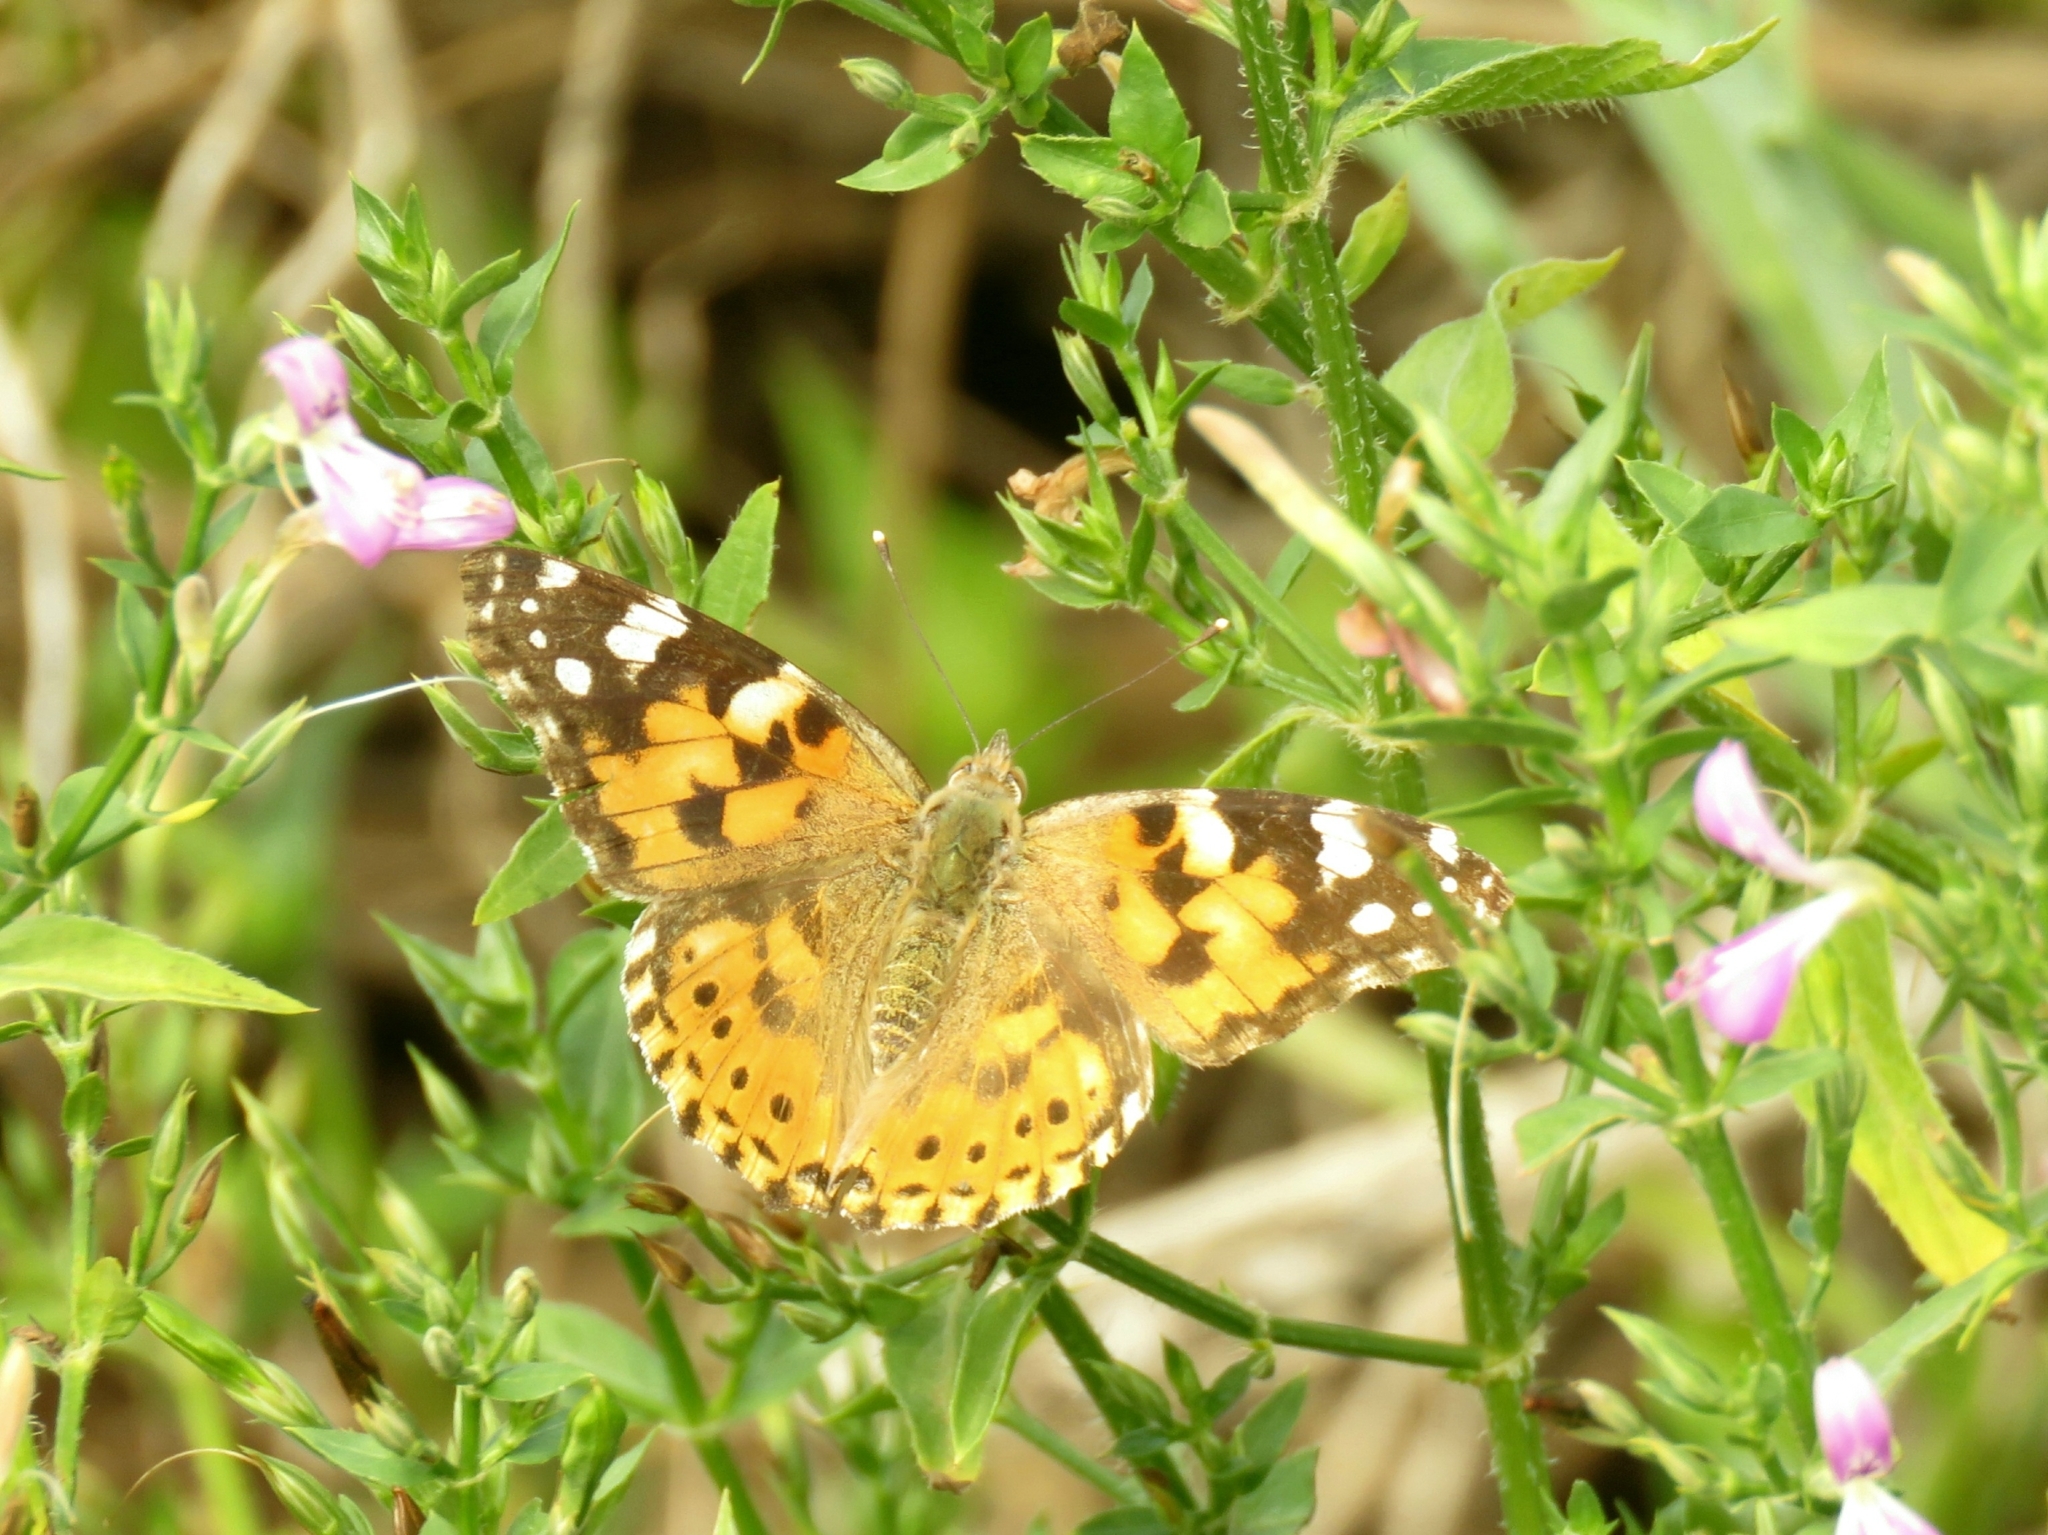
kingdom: Animalia
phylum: Arthropoda
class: Insecta
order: Lepidoptera
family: Nymphalidae
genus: Vanessa
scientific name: Vanessa cardui
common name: Painted lady
